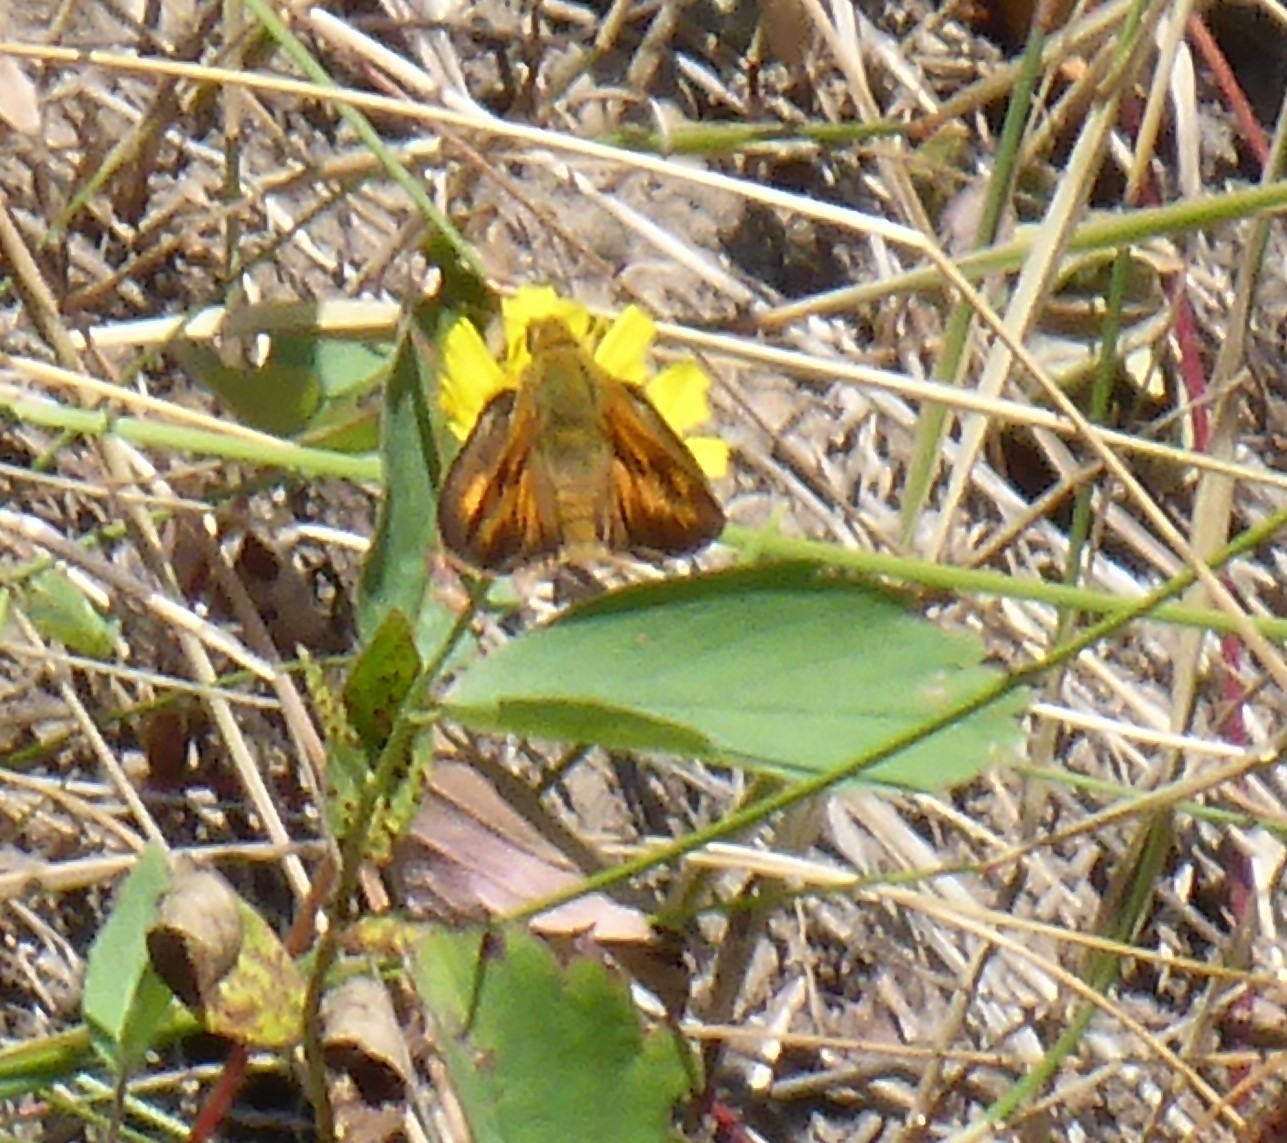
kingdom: Animalia
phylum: Arthropoda
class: Insecta
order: Lepidoptera
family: Hesperiidae
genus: Ochlodes
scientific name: Ochlodes sylvanoides
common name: Woodland skipper
